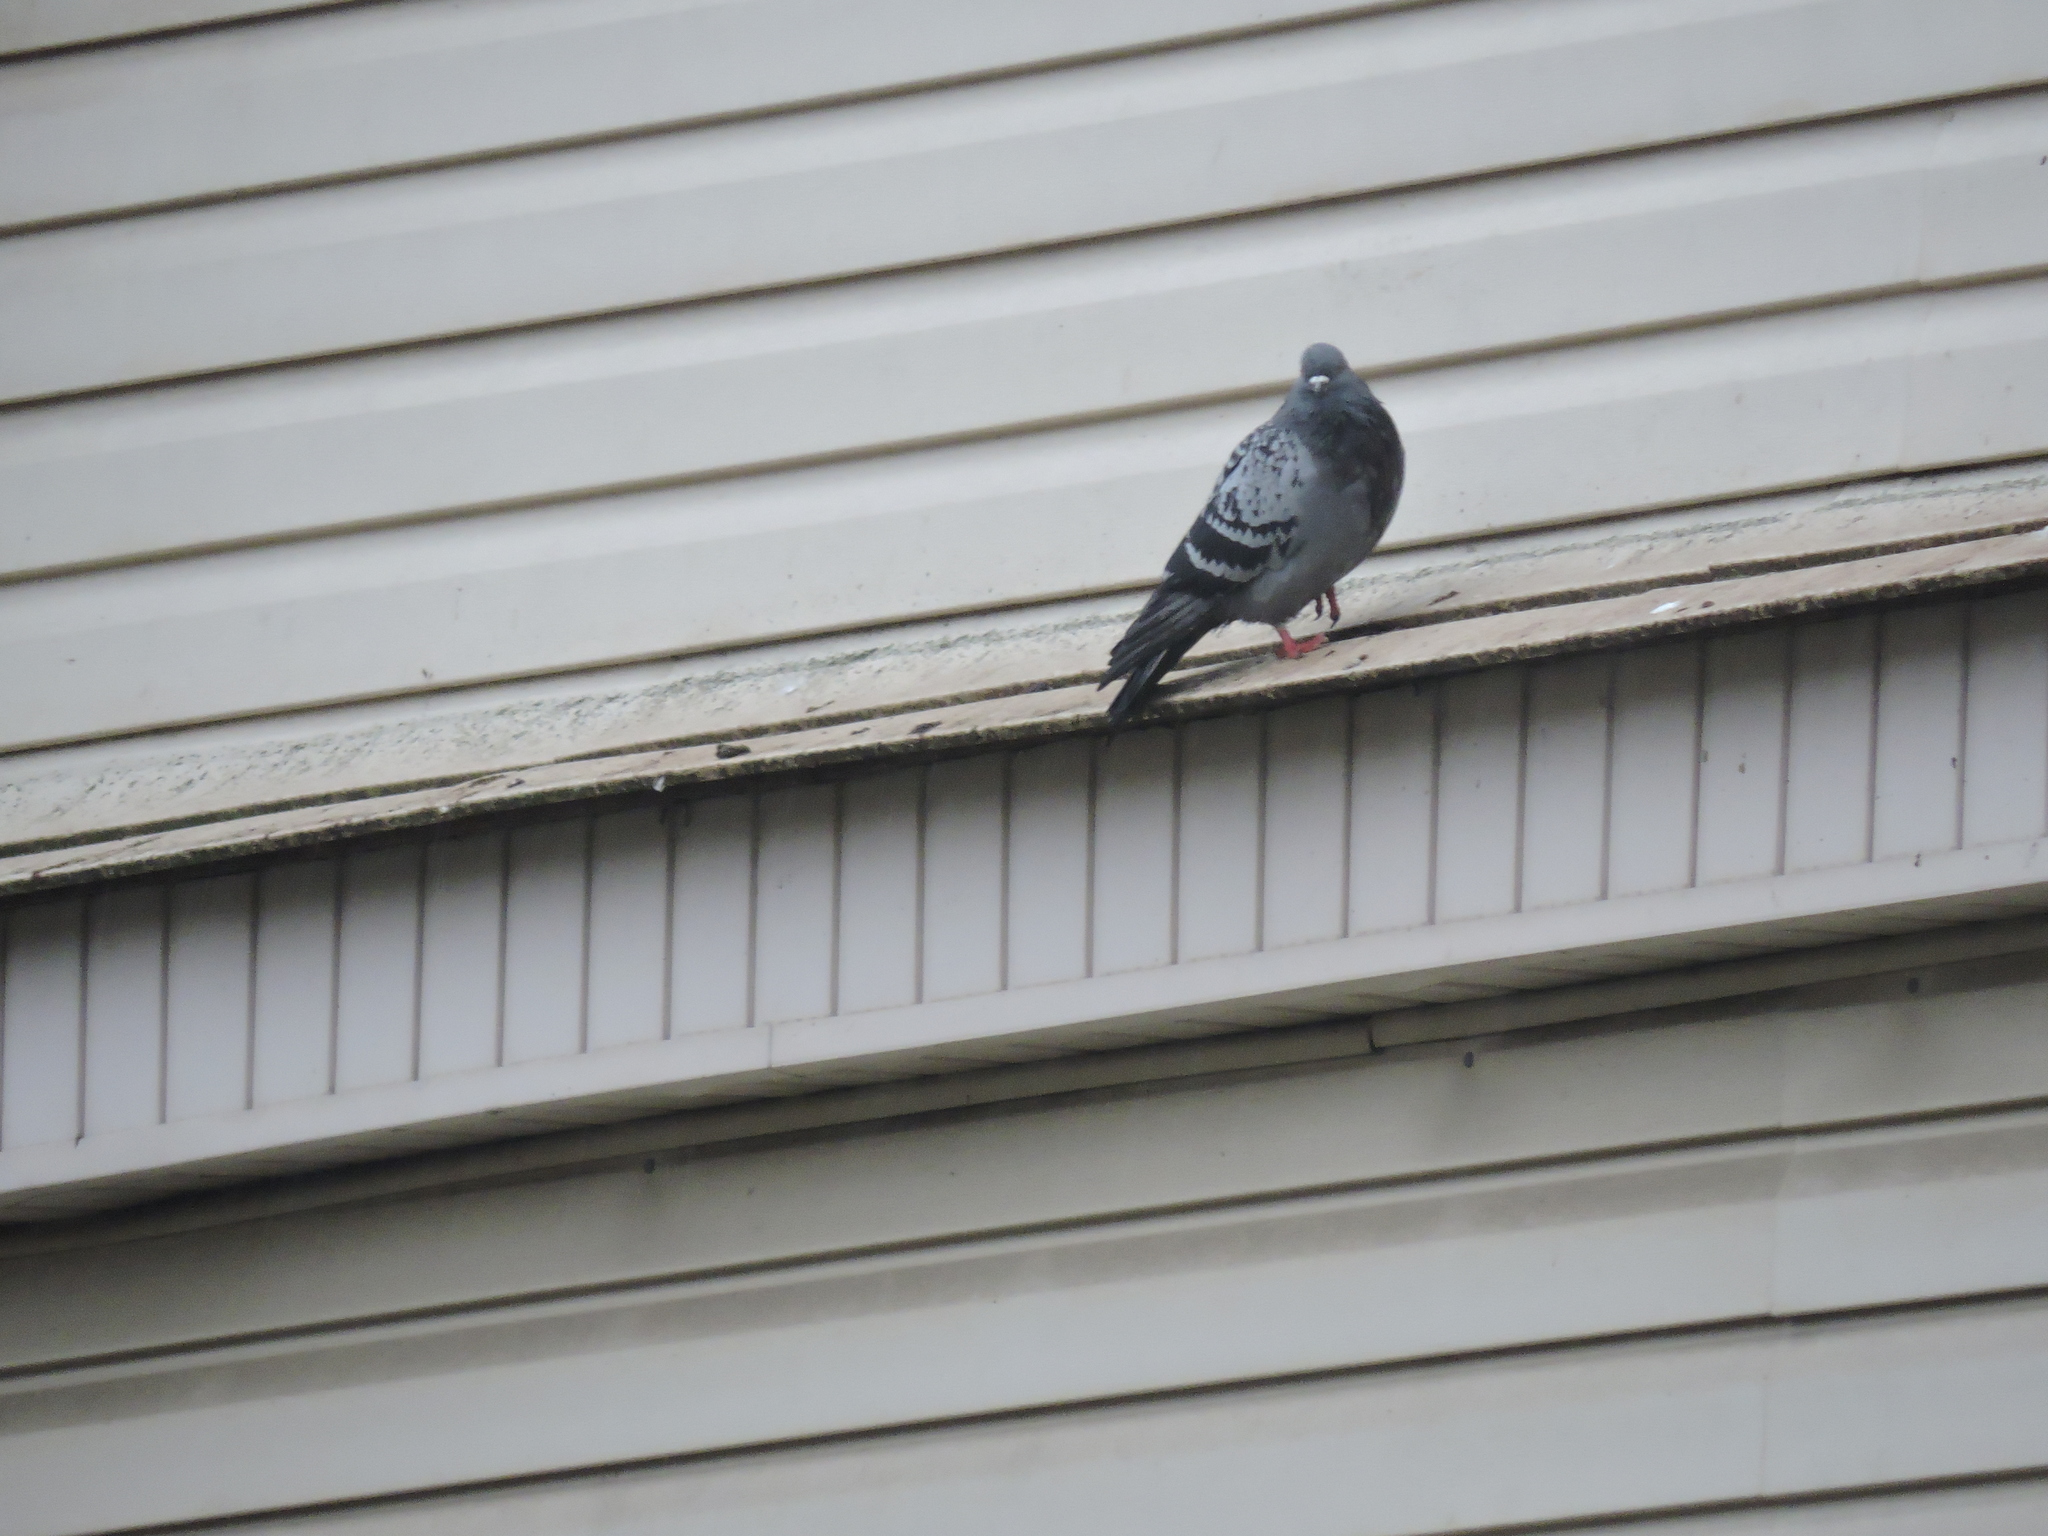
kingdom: Animalia
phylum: Chordata
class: Aves
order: Columbiformes
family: Columbidae
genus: Columba
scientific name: Columba livia
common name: Rock pigeon
